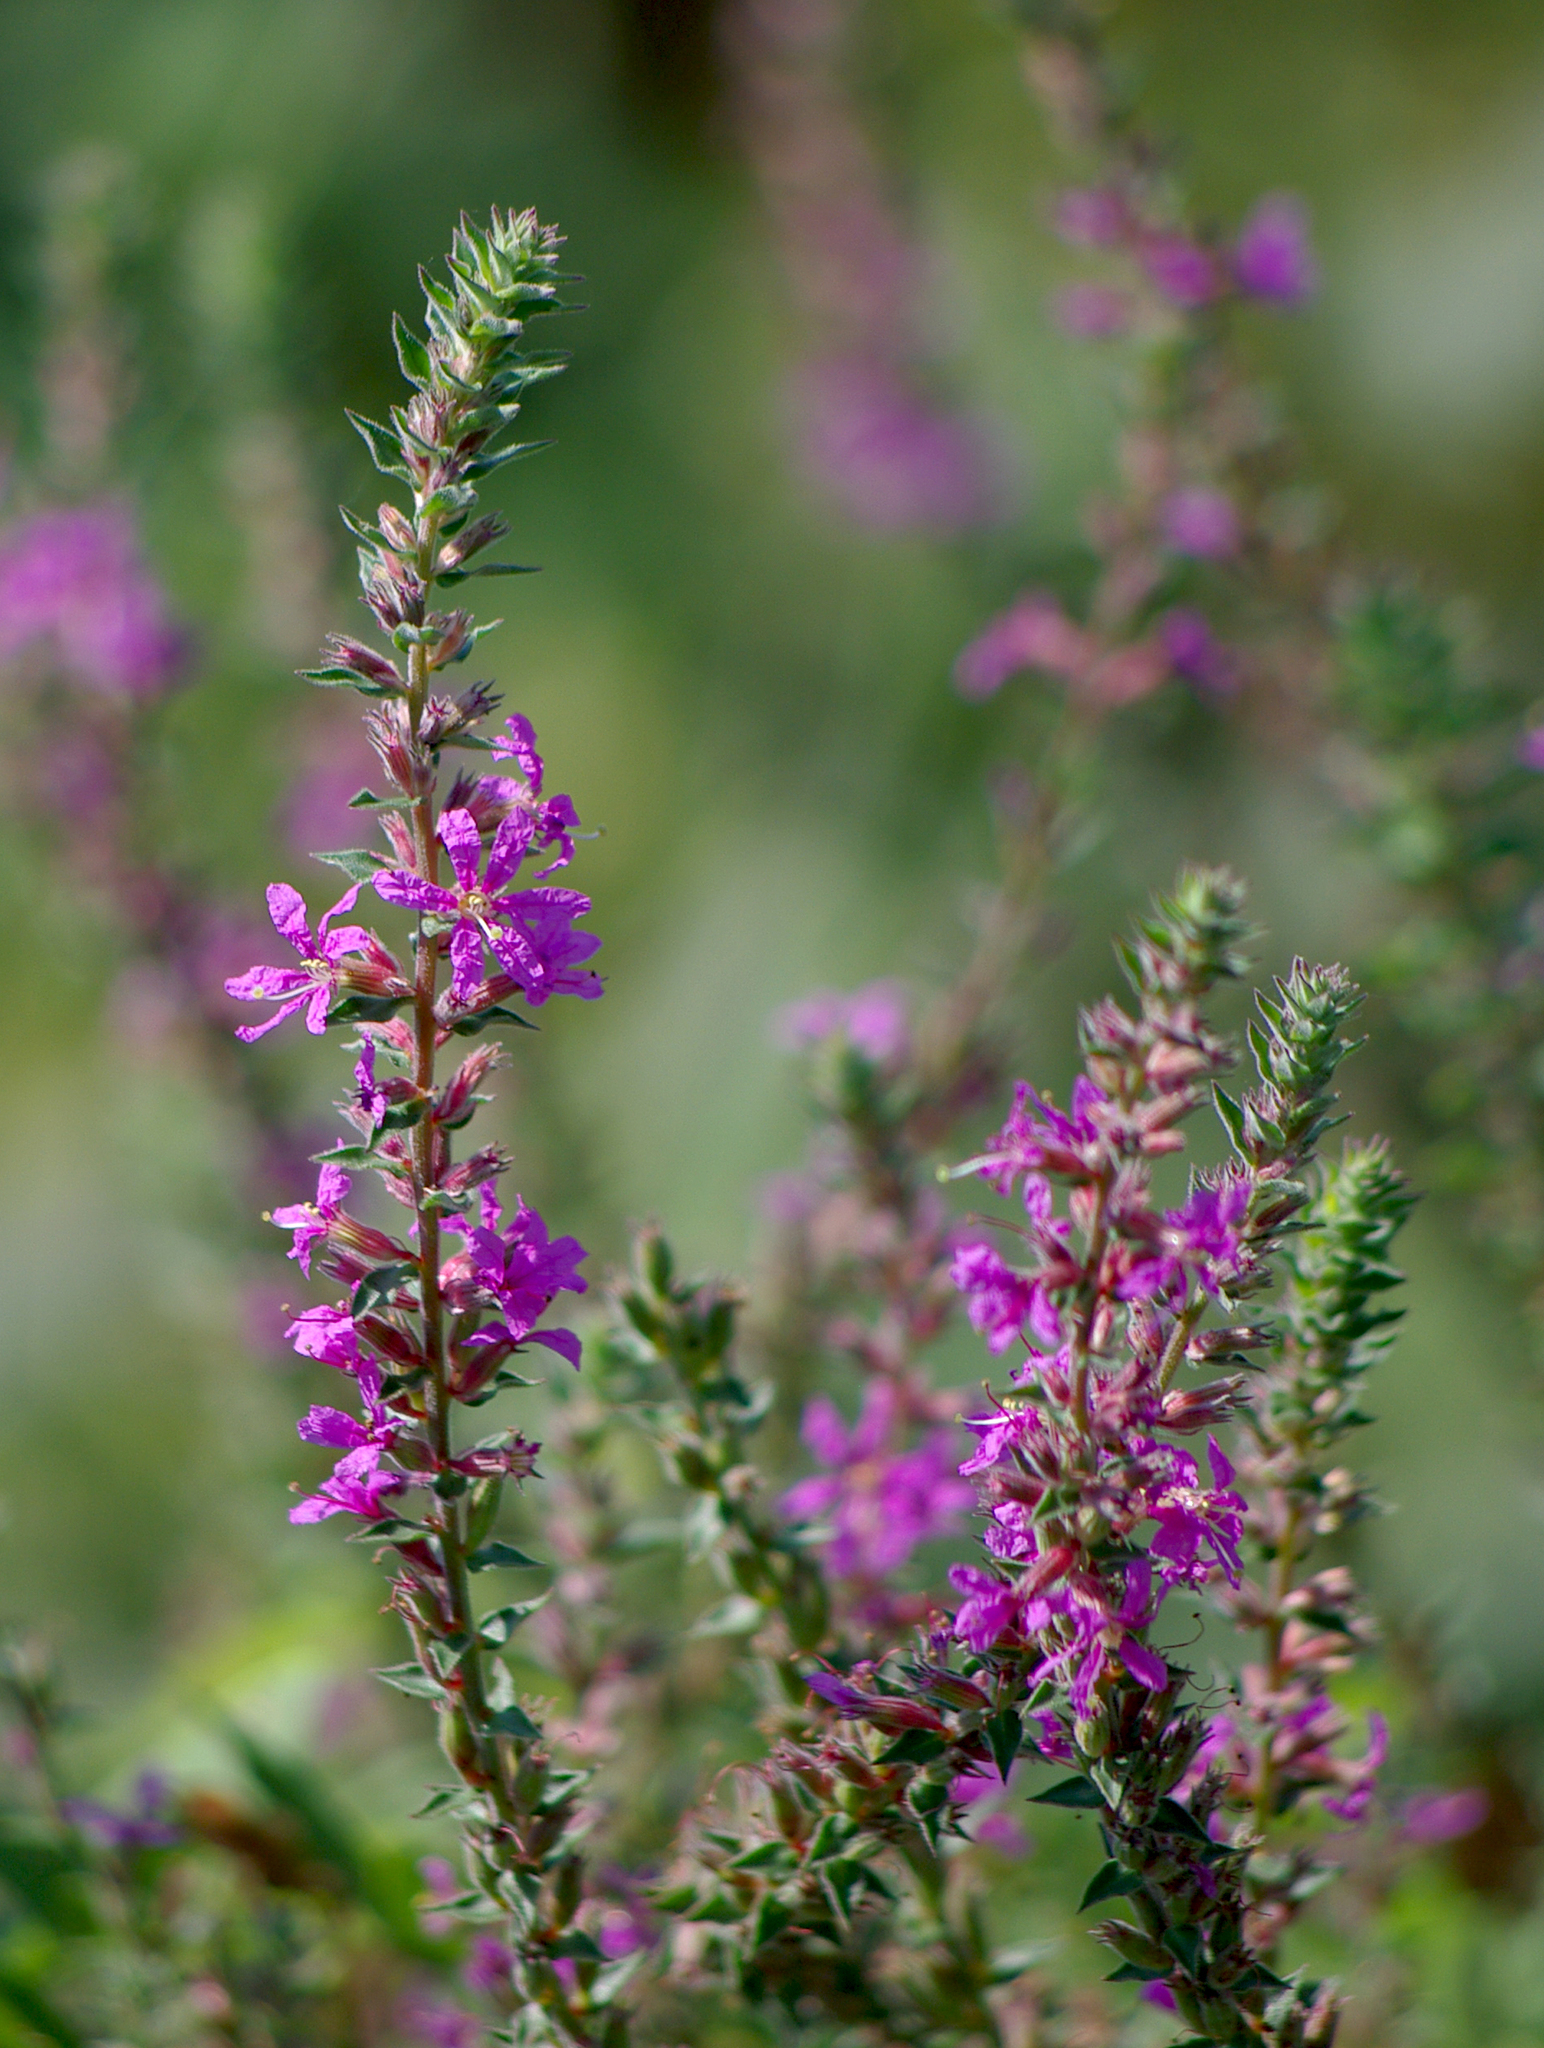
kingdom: Plantae
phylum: Tracheophyta
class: Magnoliopsida
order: Myrtales
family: Lythraceae
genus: Lythrum
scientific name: Lythrum salicaria
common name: Purple loosestrife
